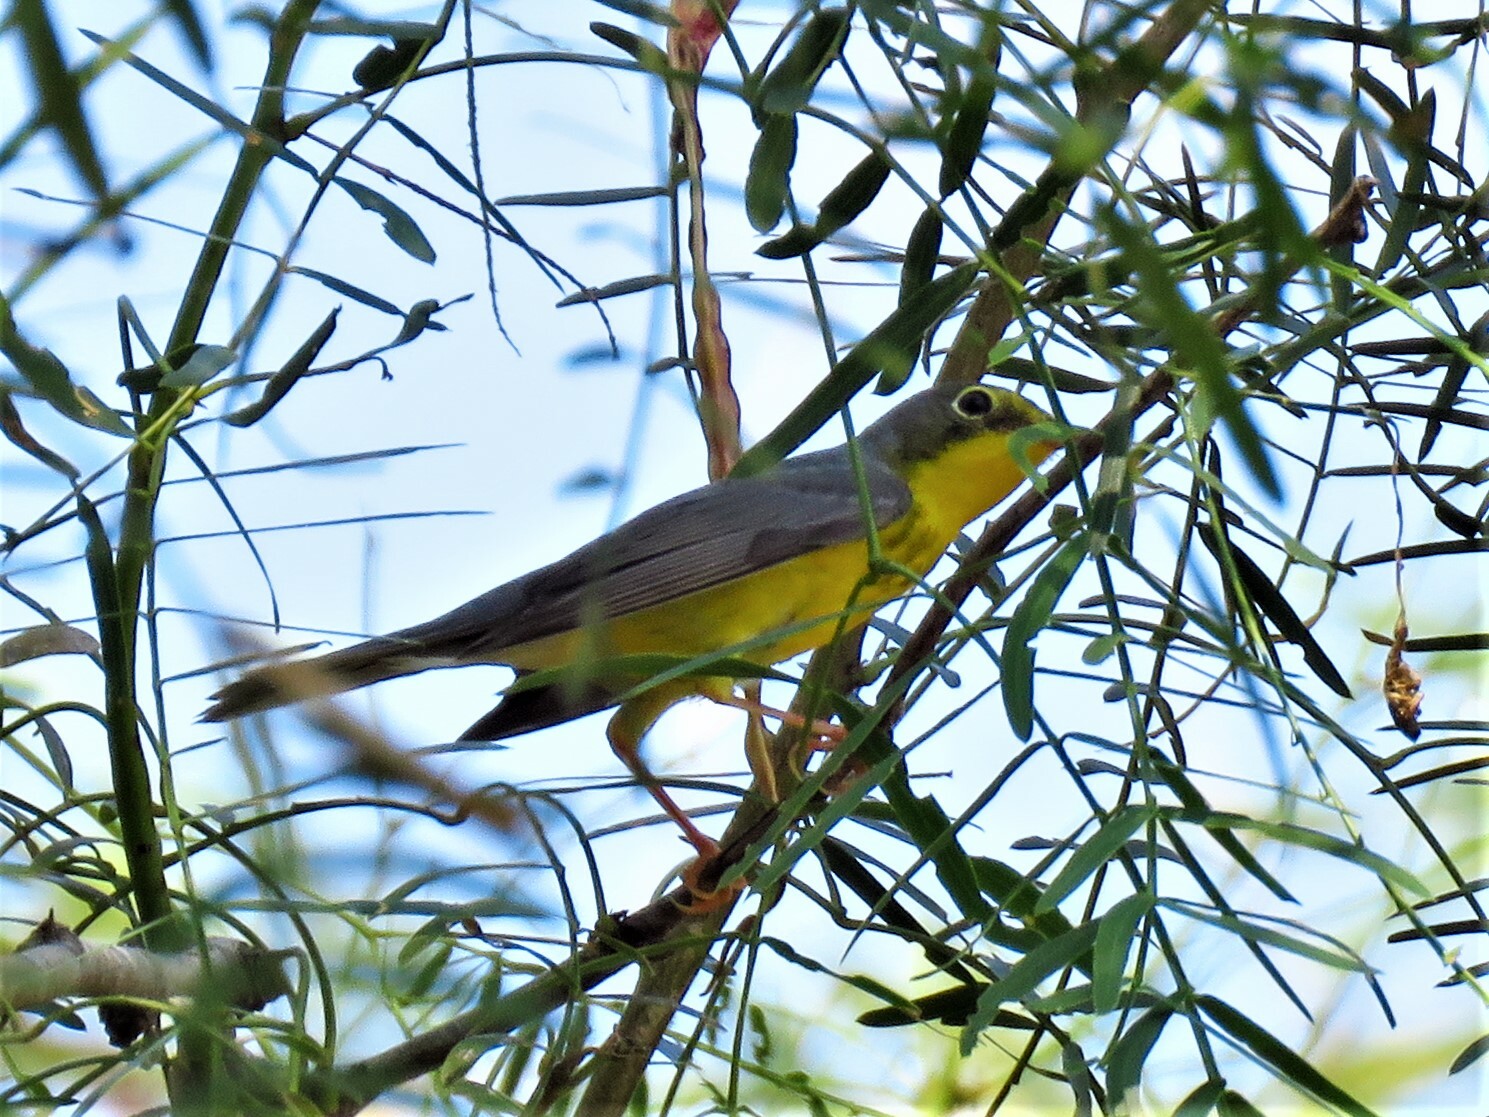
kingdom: Animalia
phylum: Chordata
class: Aves
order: Passeriformes
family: Parulidae
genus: Cardellina
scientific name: Cardellina canadensis
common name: Canada warbler
